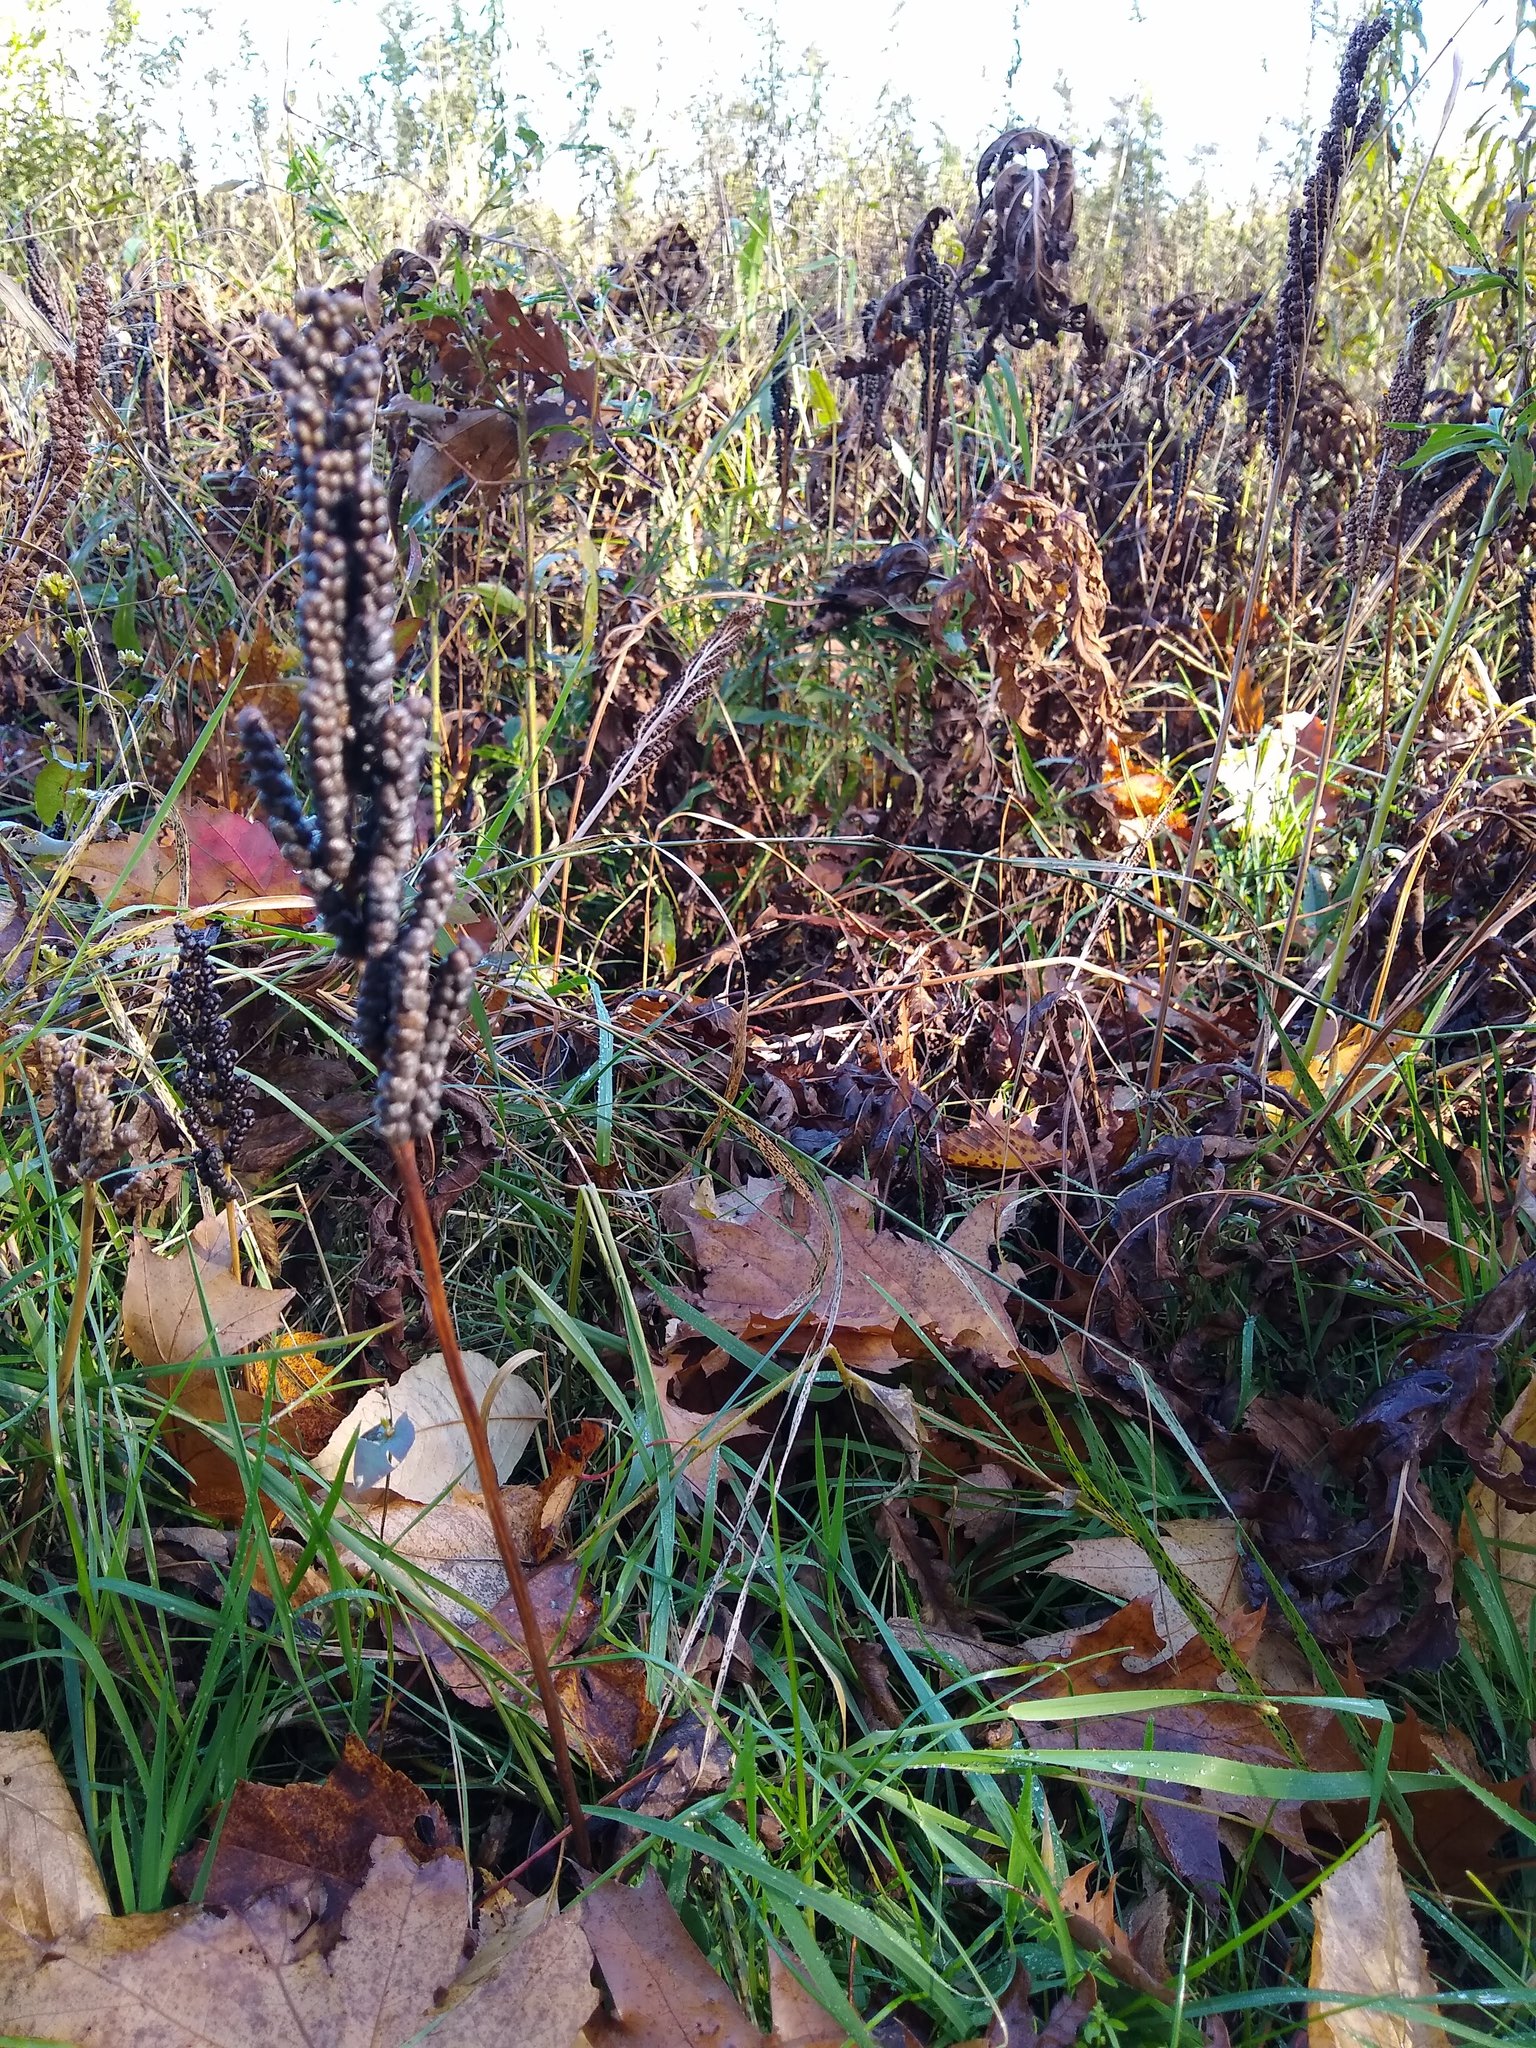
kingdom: Plantae
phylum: Tracheophyta
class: Polypodiopsida
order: Polypodiales
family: Onocleaceae
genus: Onoclea
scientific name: Onoclea sensibilis
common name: Sensitive fern
